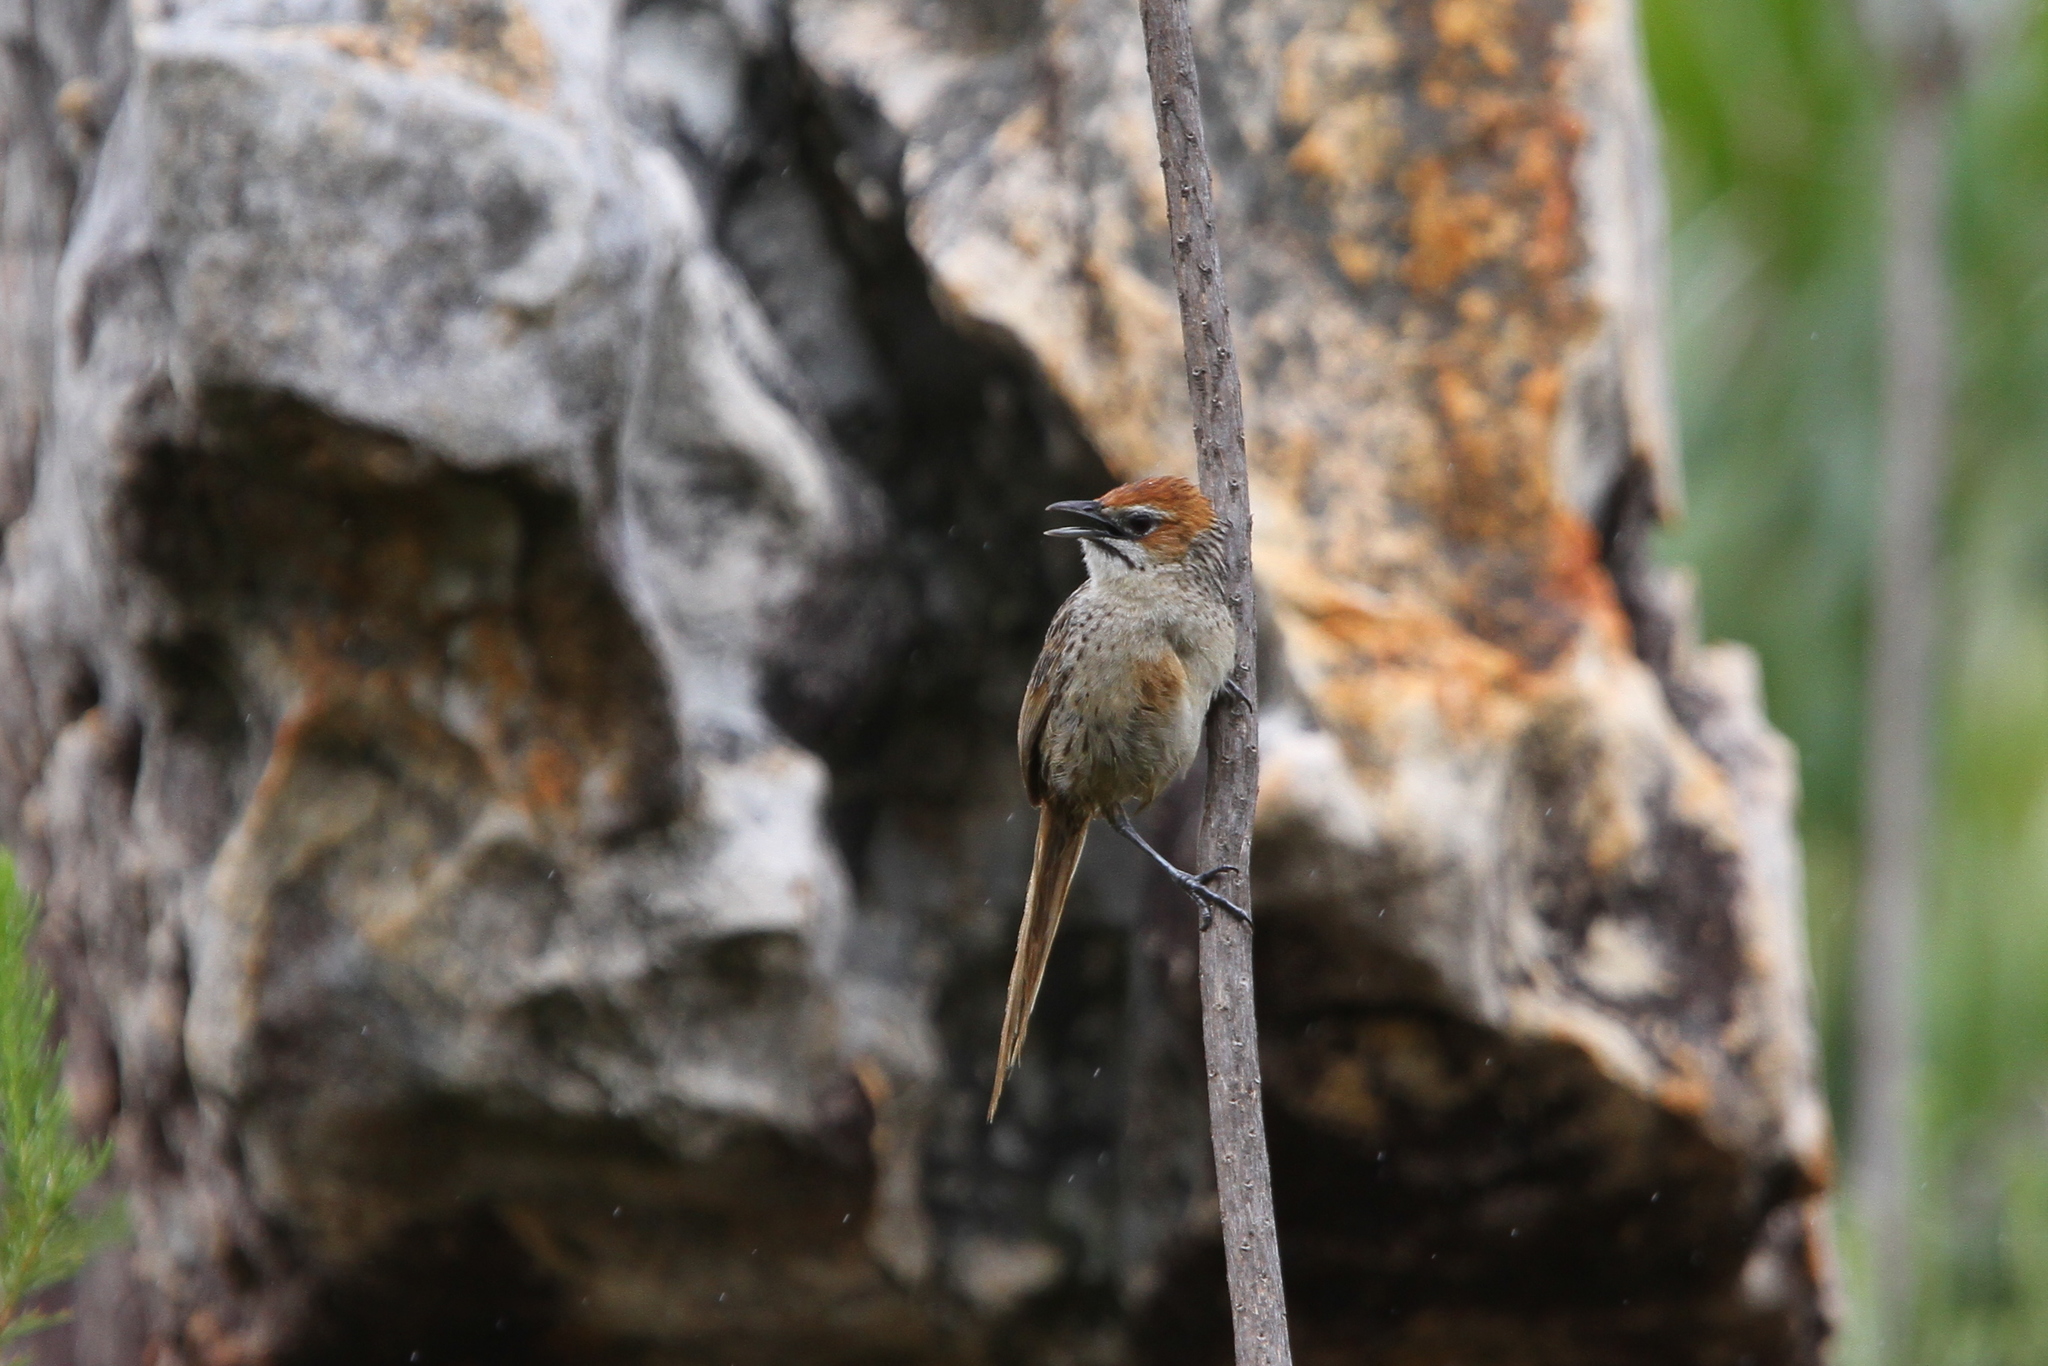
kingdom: Animalia
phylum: Chordata
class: Aves
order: Passeriformes
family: Macrosphenidae
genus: Sphenoeacus
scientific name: Sphenoeacus afer
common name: Cape grassbird
